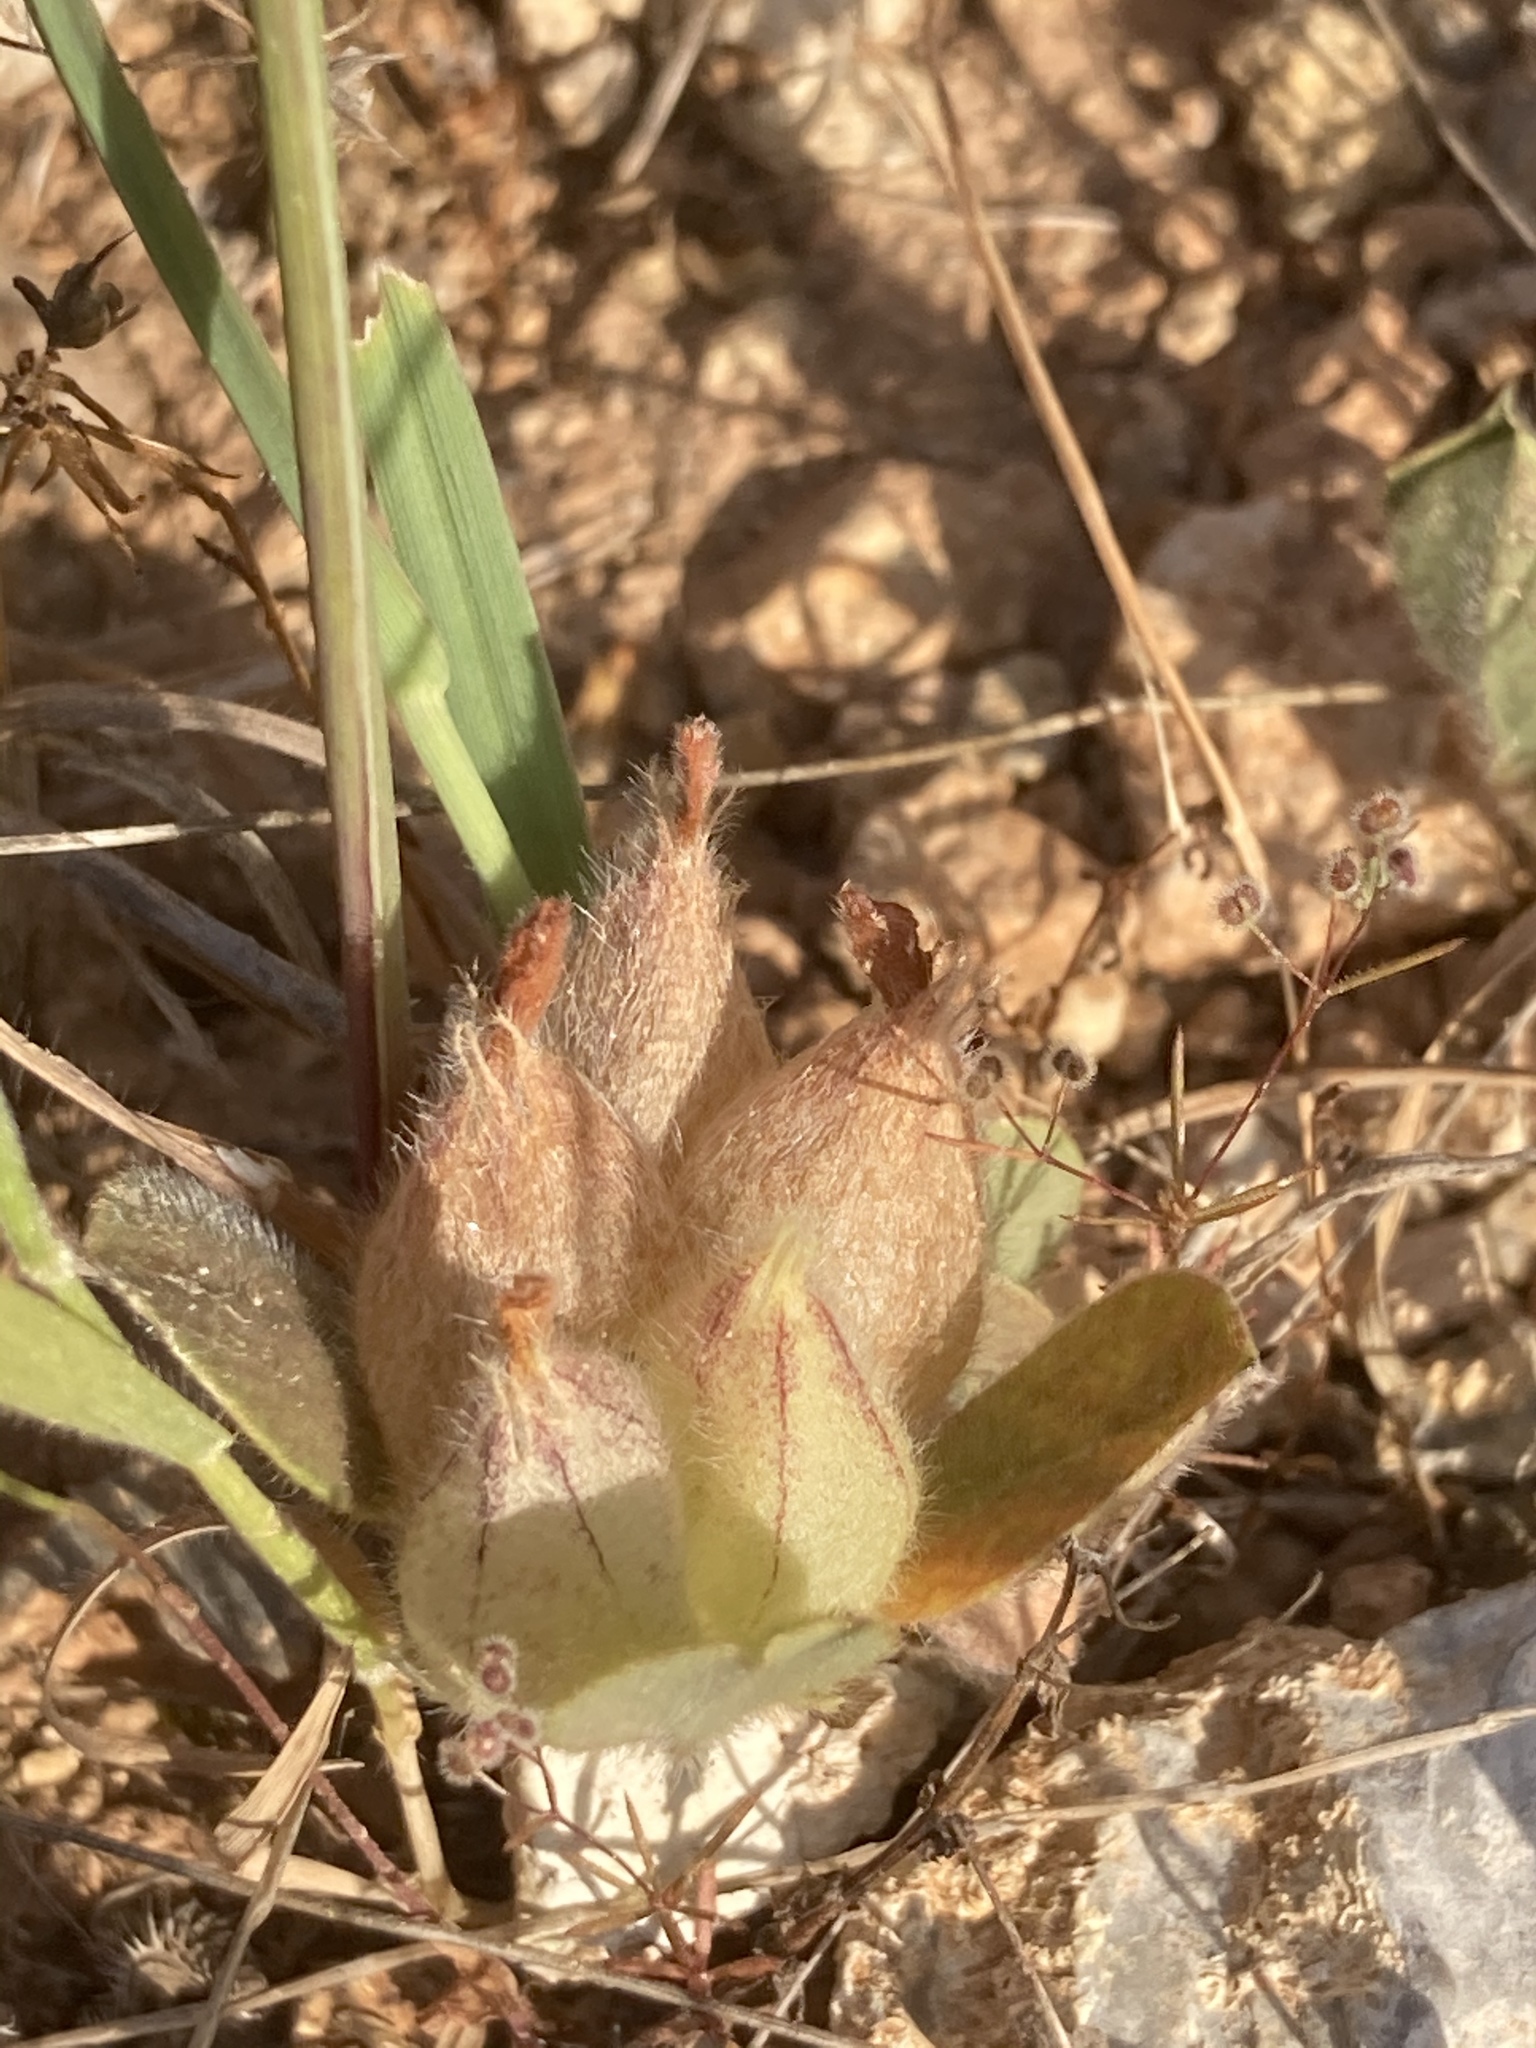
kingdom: Plantae
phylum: Tracheophyta
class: Magnoliopsida
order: Fabales
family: Fabaceae
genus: Tripodion
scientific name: Tripodion tetraphyllum
